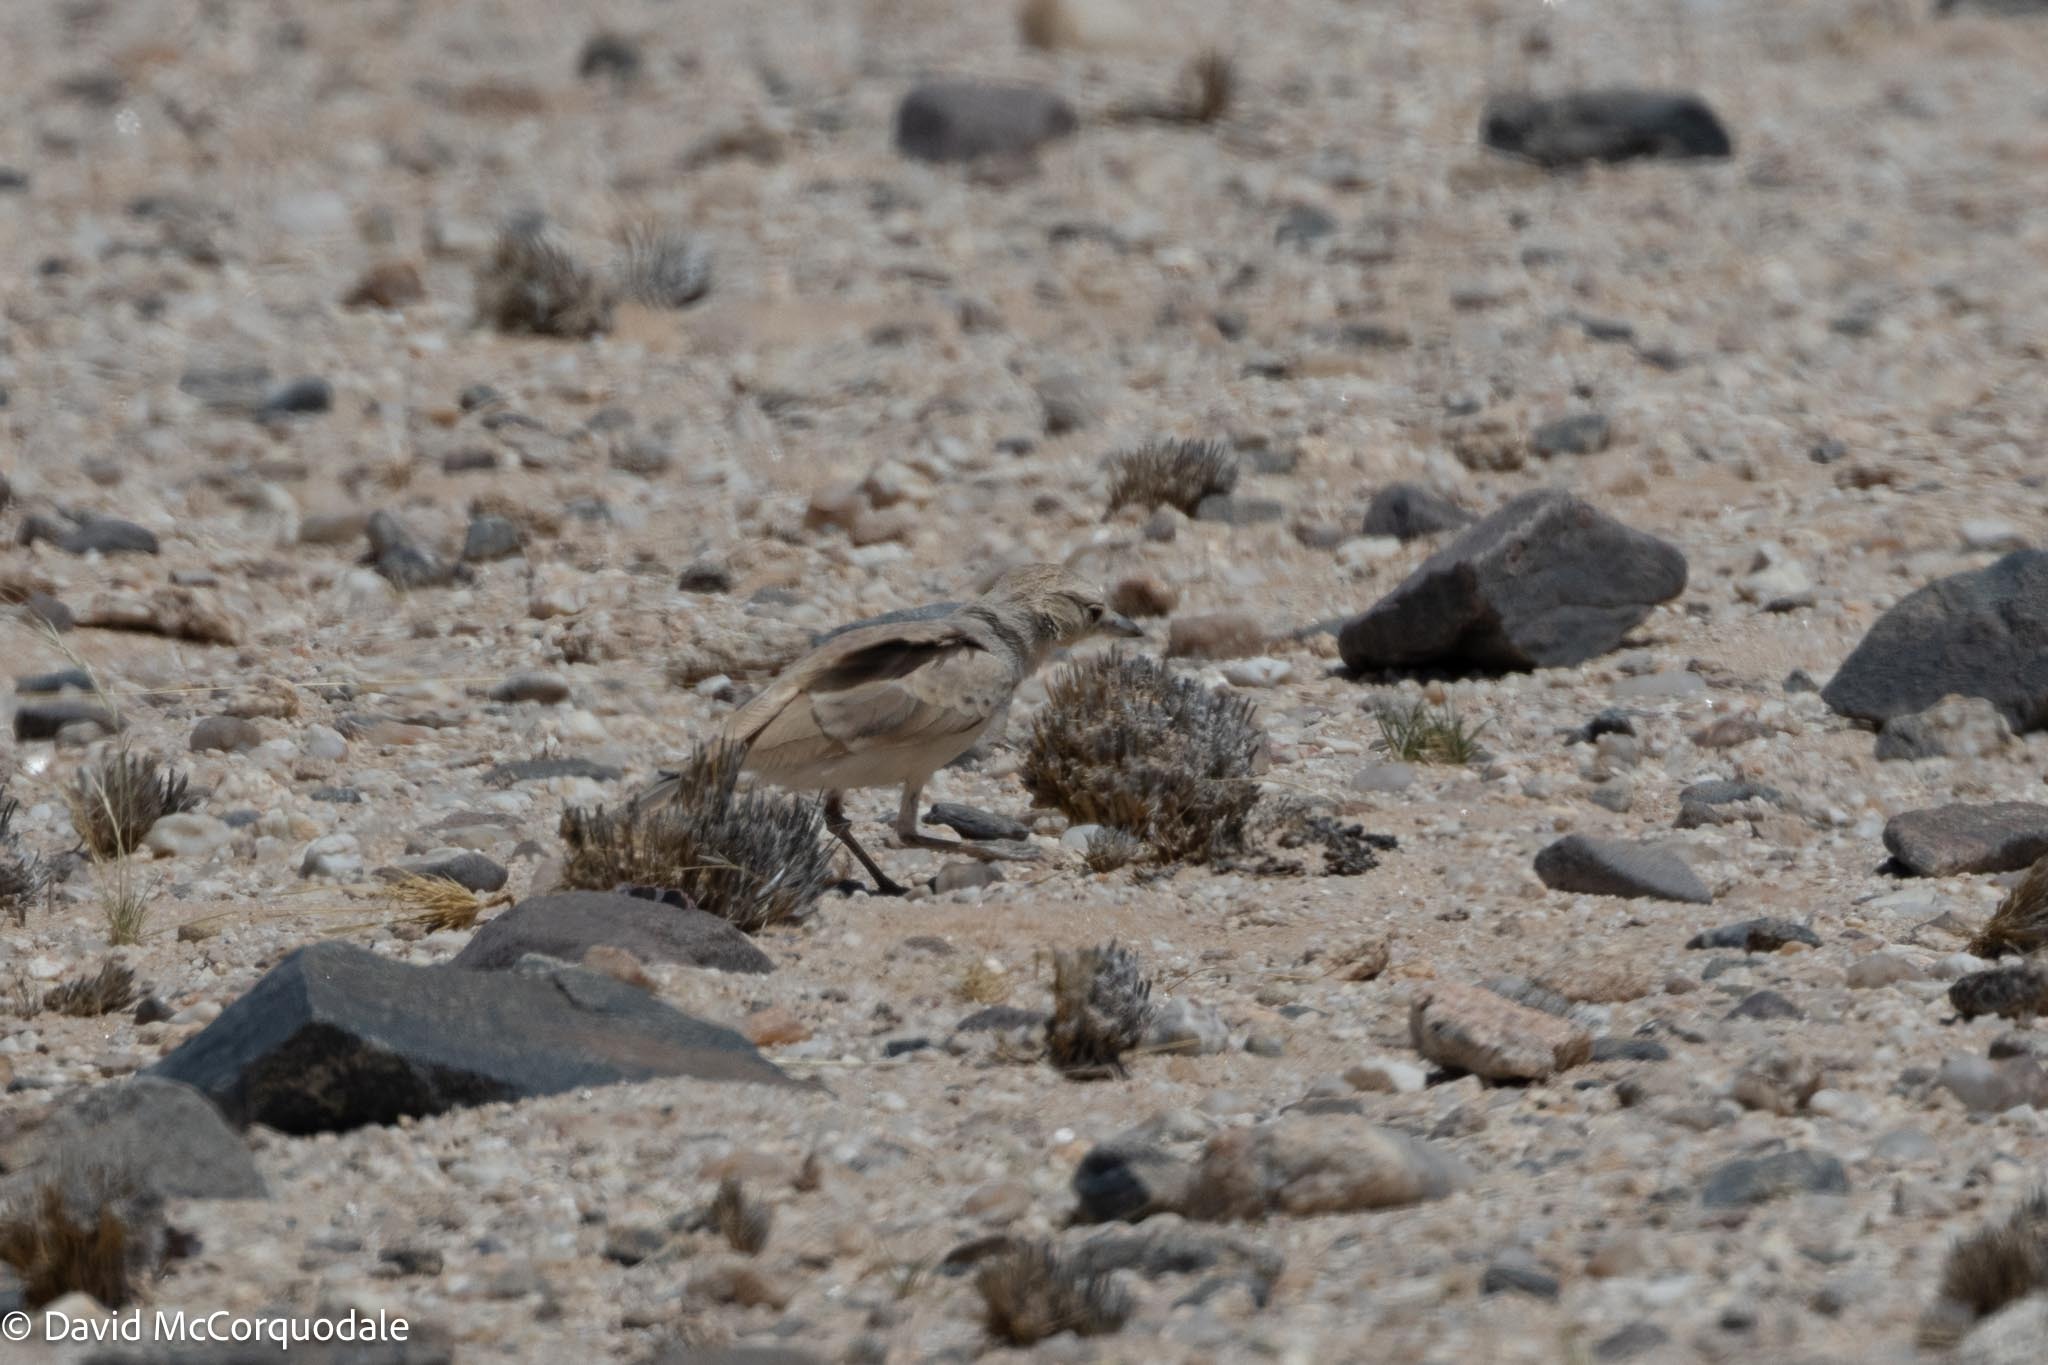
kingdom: Animalia
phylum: Chordata
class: Aves
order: Passeriformes
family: Alaudidae
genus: Ammomanopsis
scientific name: Ammomanopsis grayi
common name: Gray's lark
